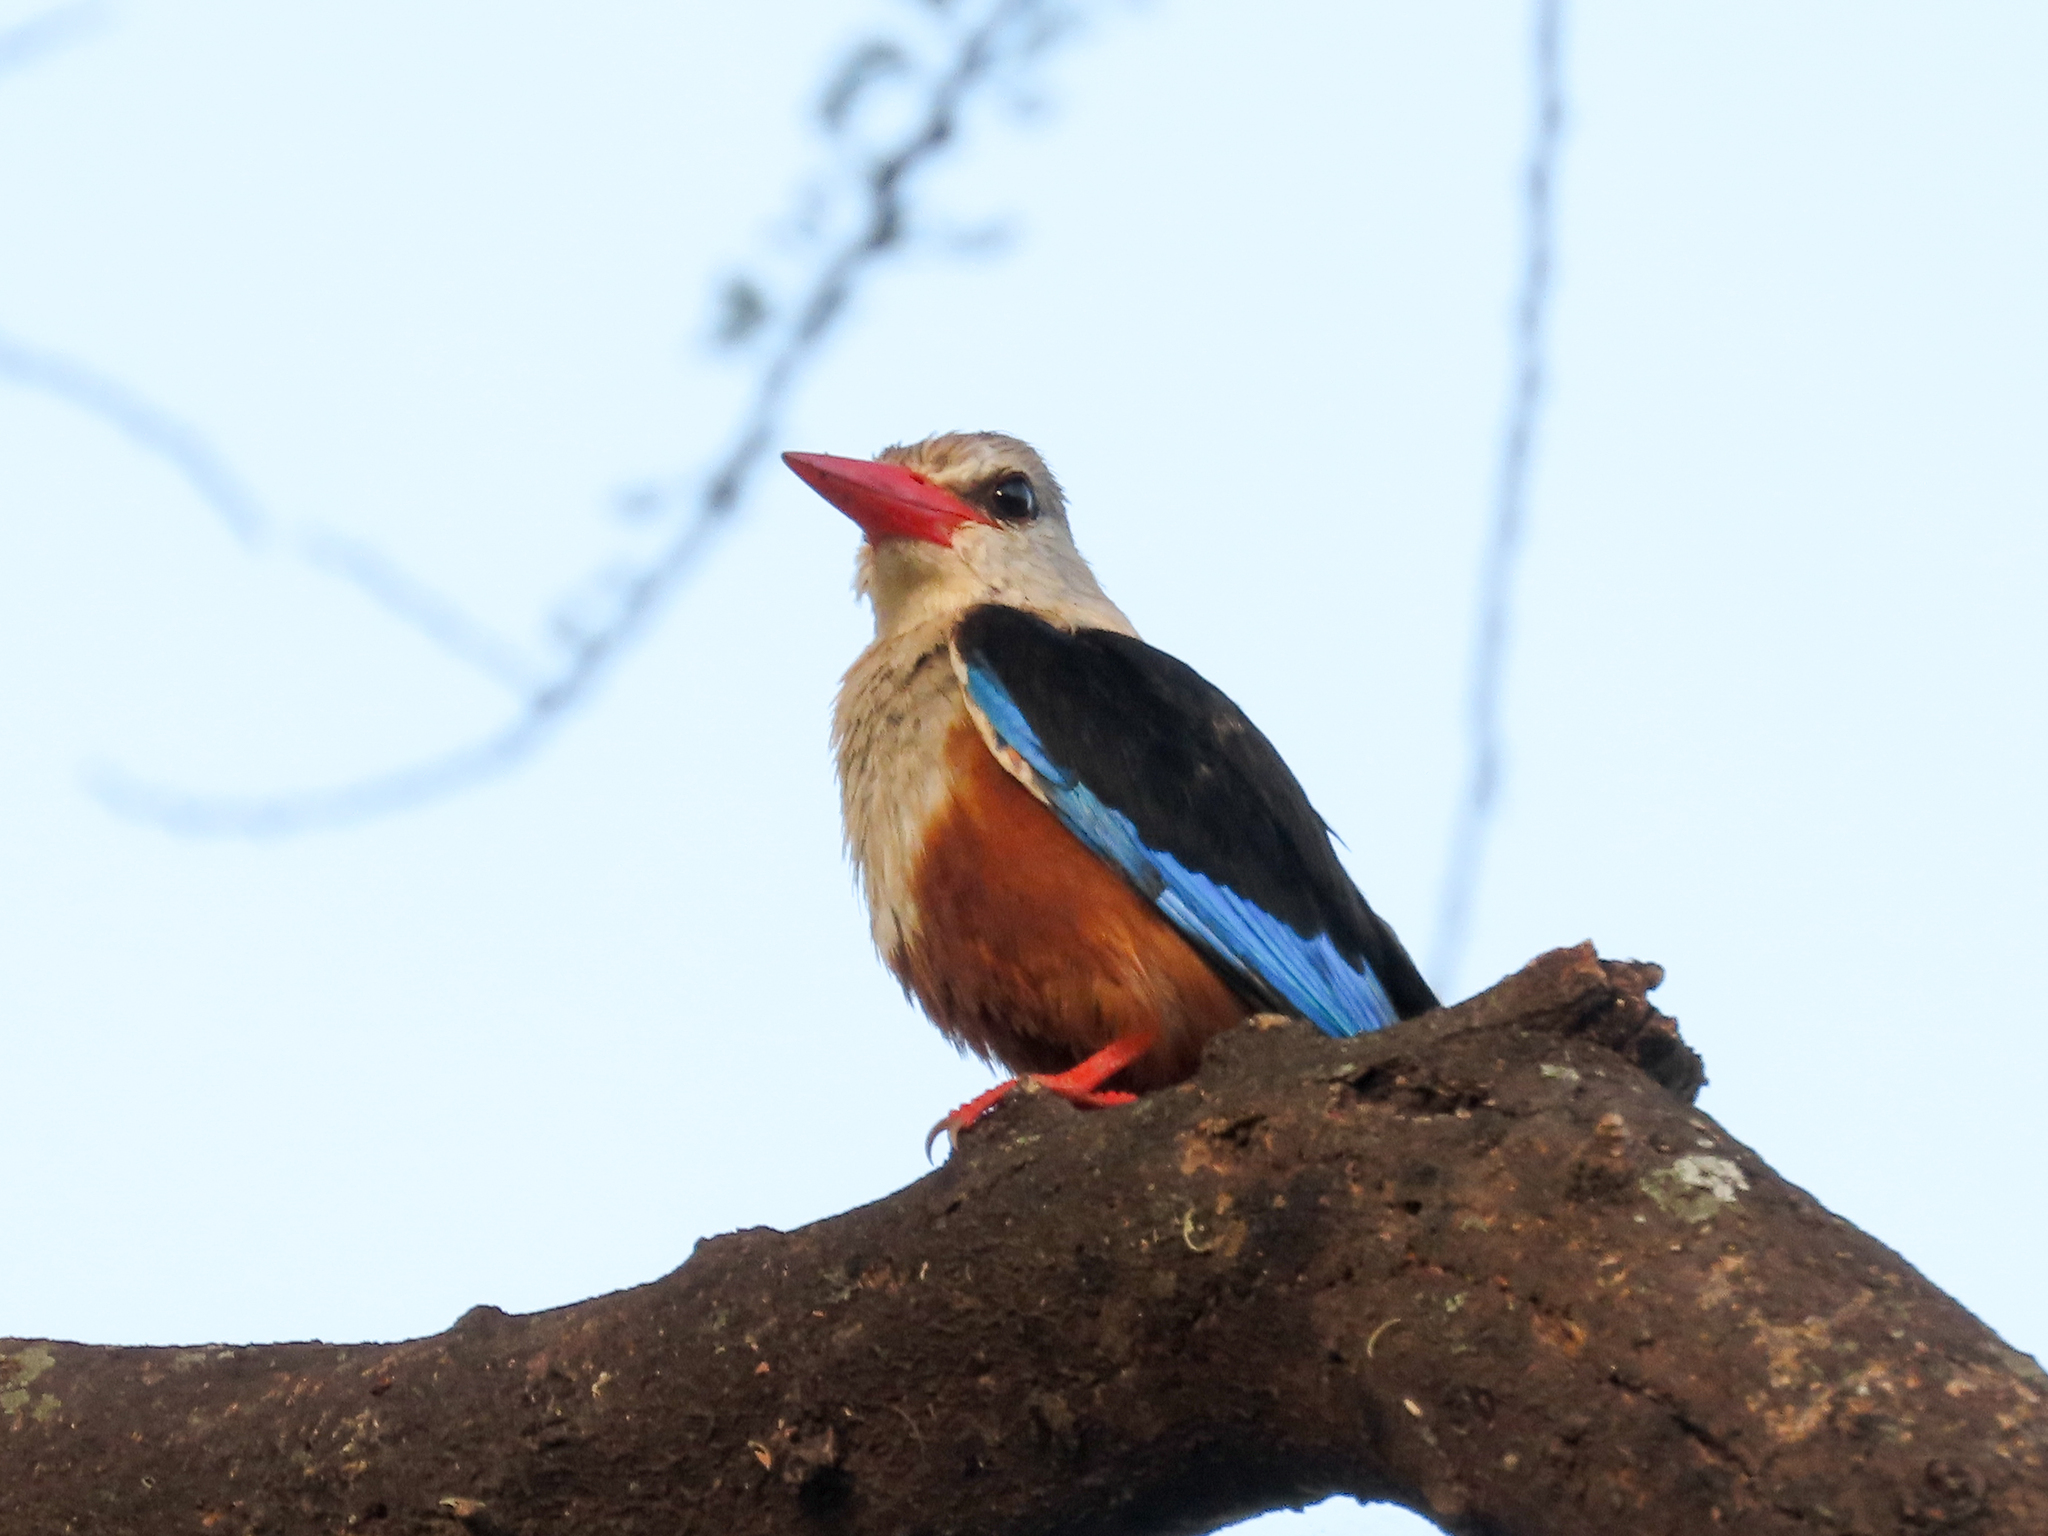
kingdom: Animalia
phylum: Chordata
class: Aves
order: Coraciiformes
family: Alcedinidae
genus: Halcyon
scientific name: Halcyon leucocephala
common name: Grey-headed kingfisher
